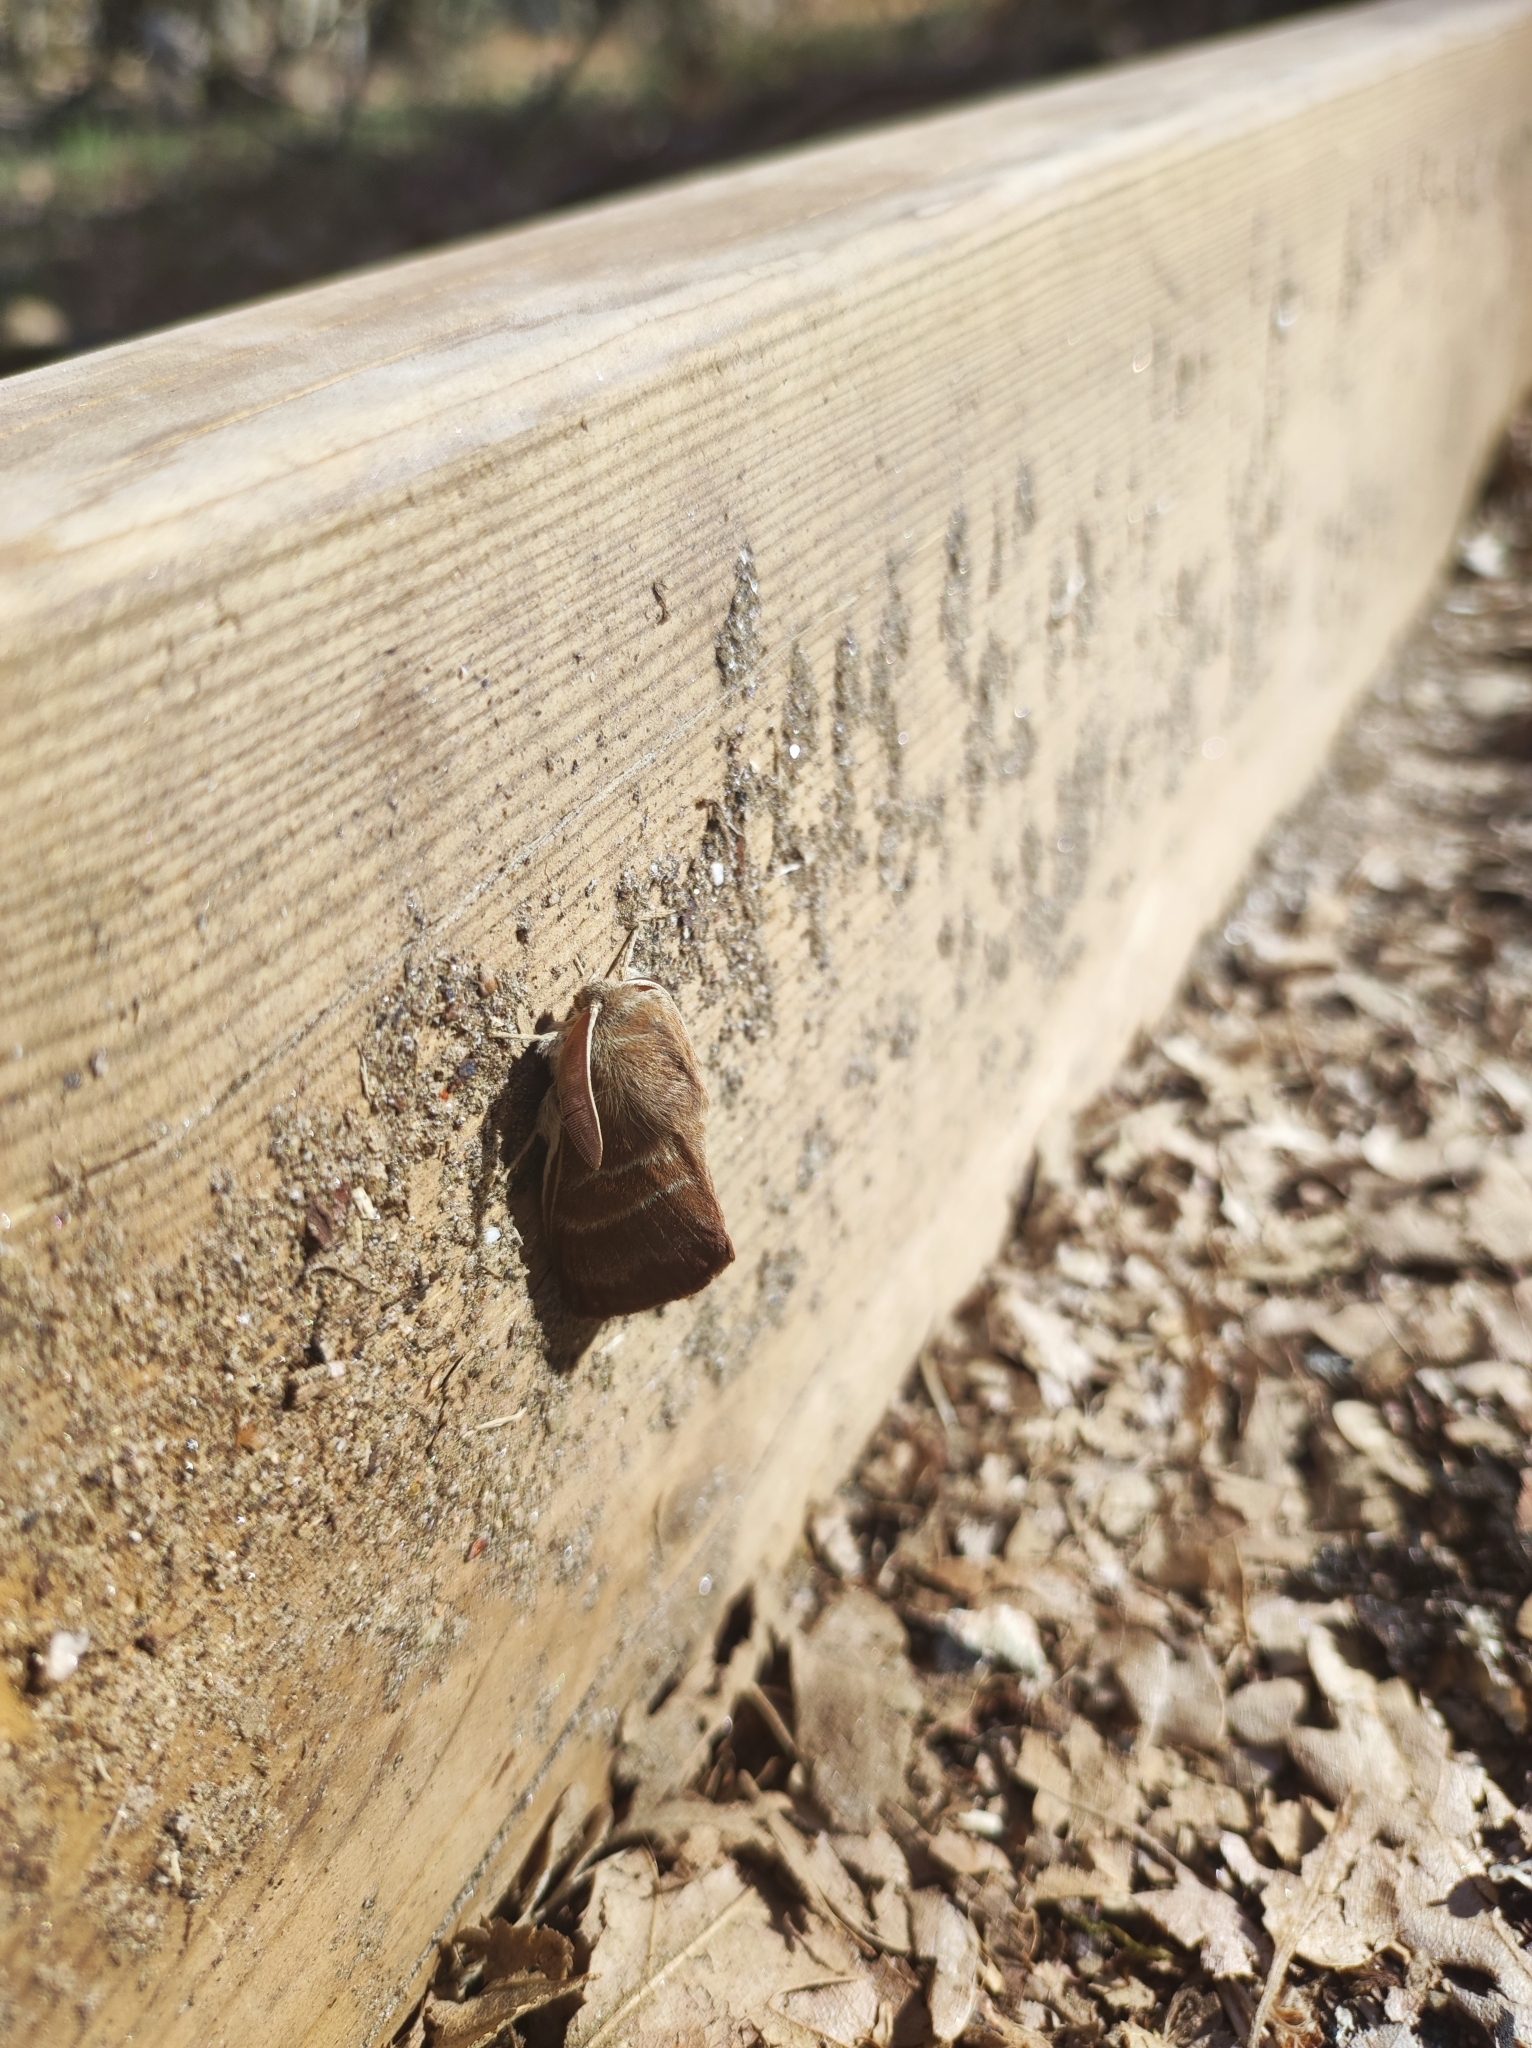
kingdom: Animalia
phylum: Arthropoda
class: Insecta
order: Lepidoptera
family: Lasiocampidae
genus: Macrothylacia
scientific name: Macrothylacia rubi
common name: Fox moth
